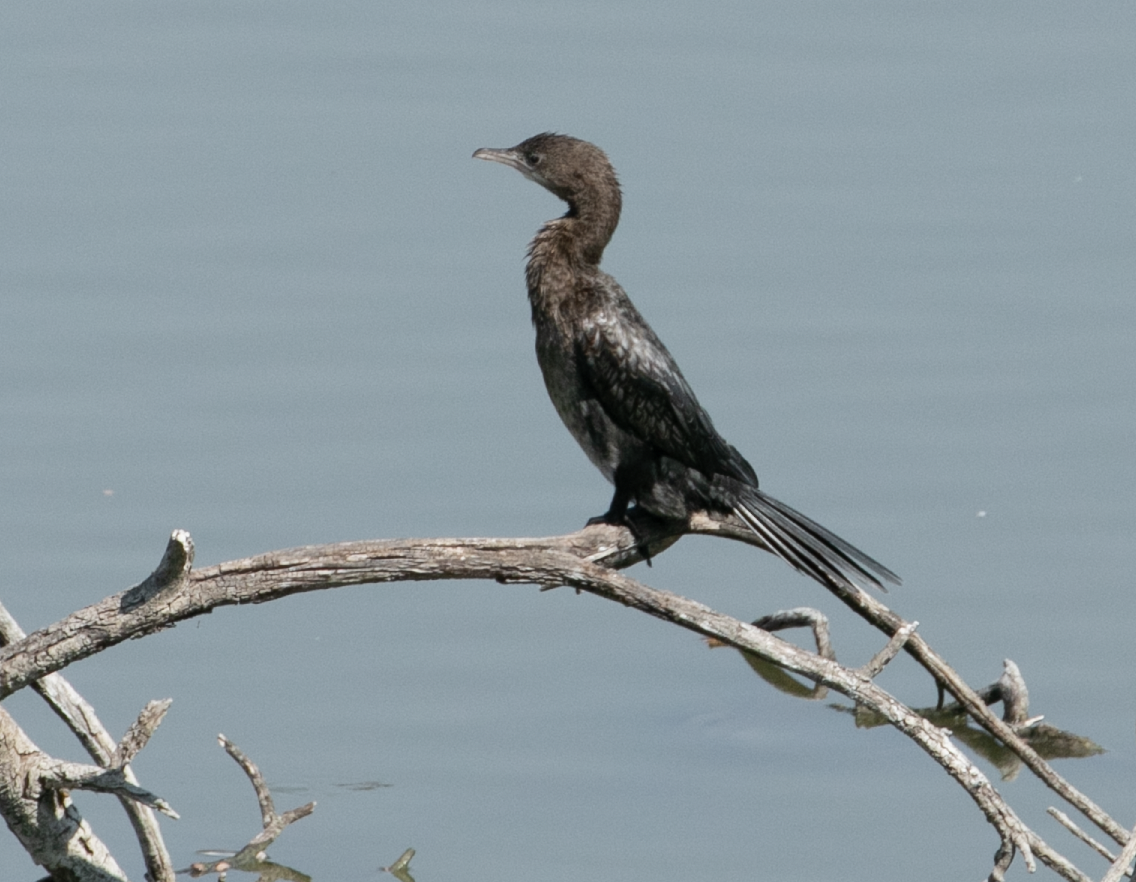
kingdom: Animalia
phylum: Chordata
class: Aves
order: Suliformes
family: Phalacrocoracidae
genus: Microcarbo
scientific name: Microcarbo pygmaeus
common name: Pygmy cormorant
